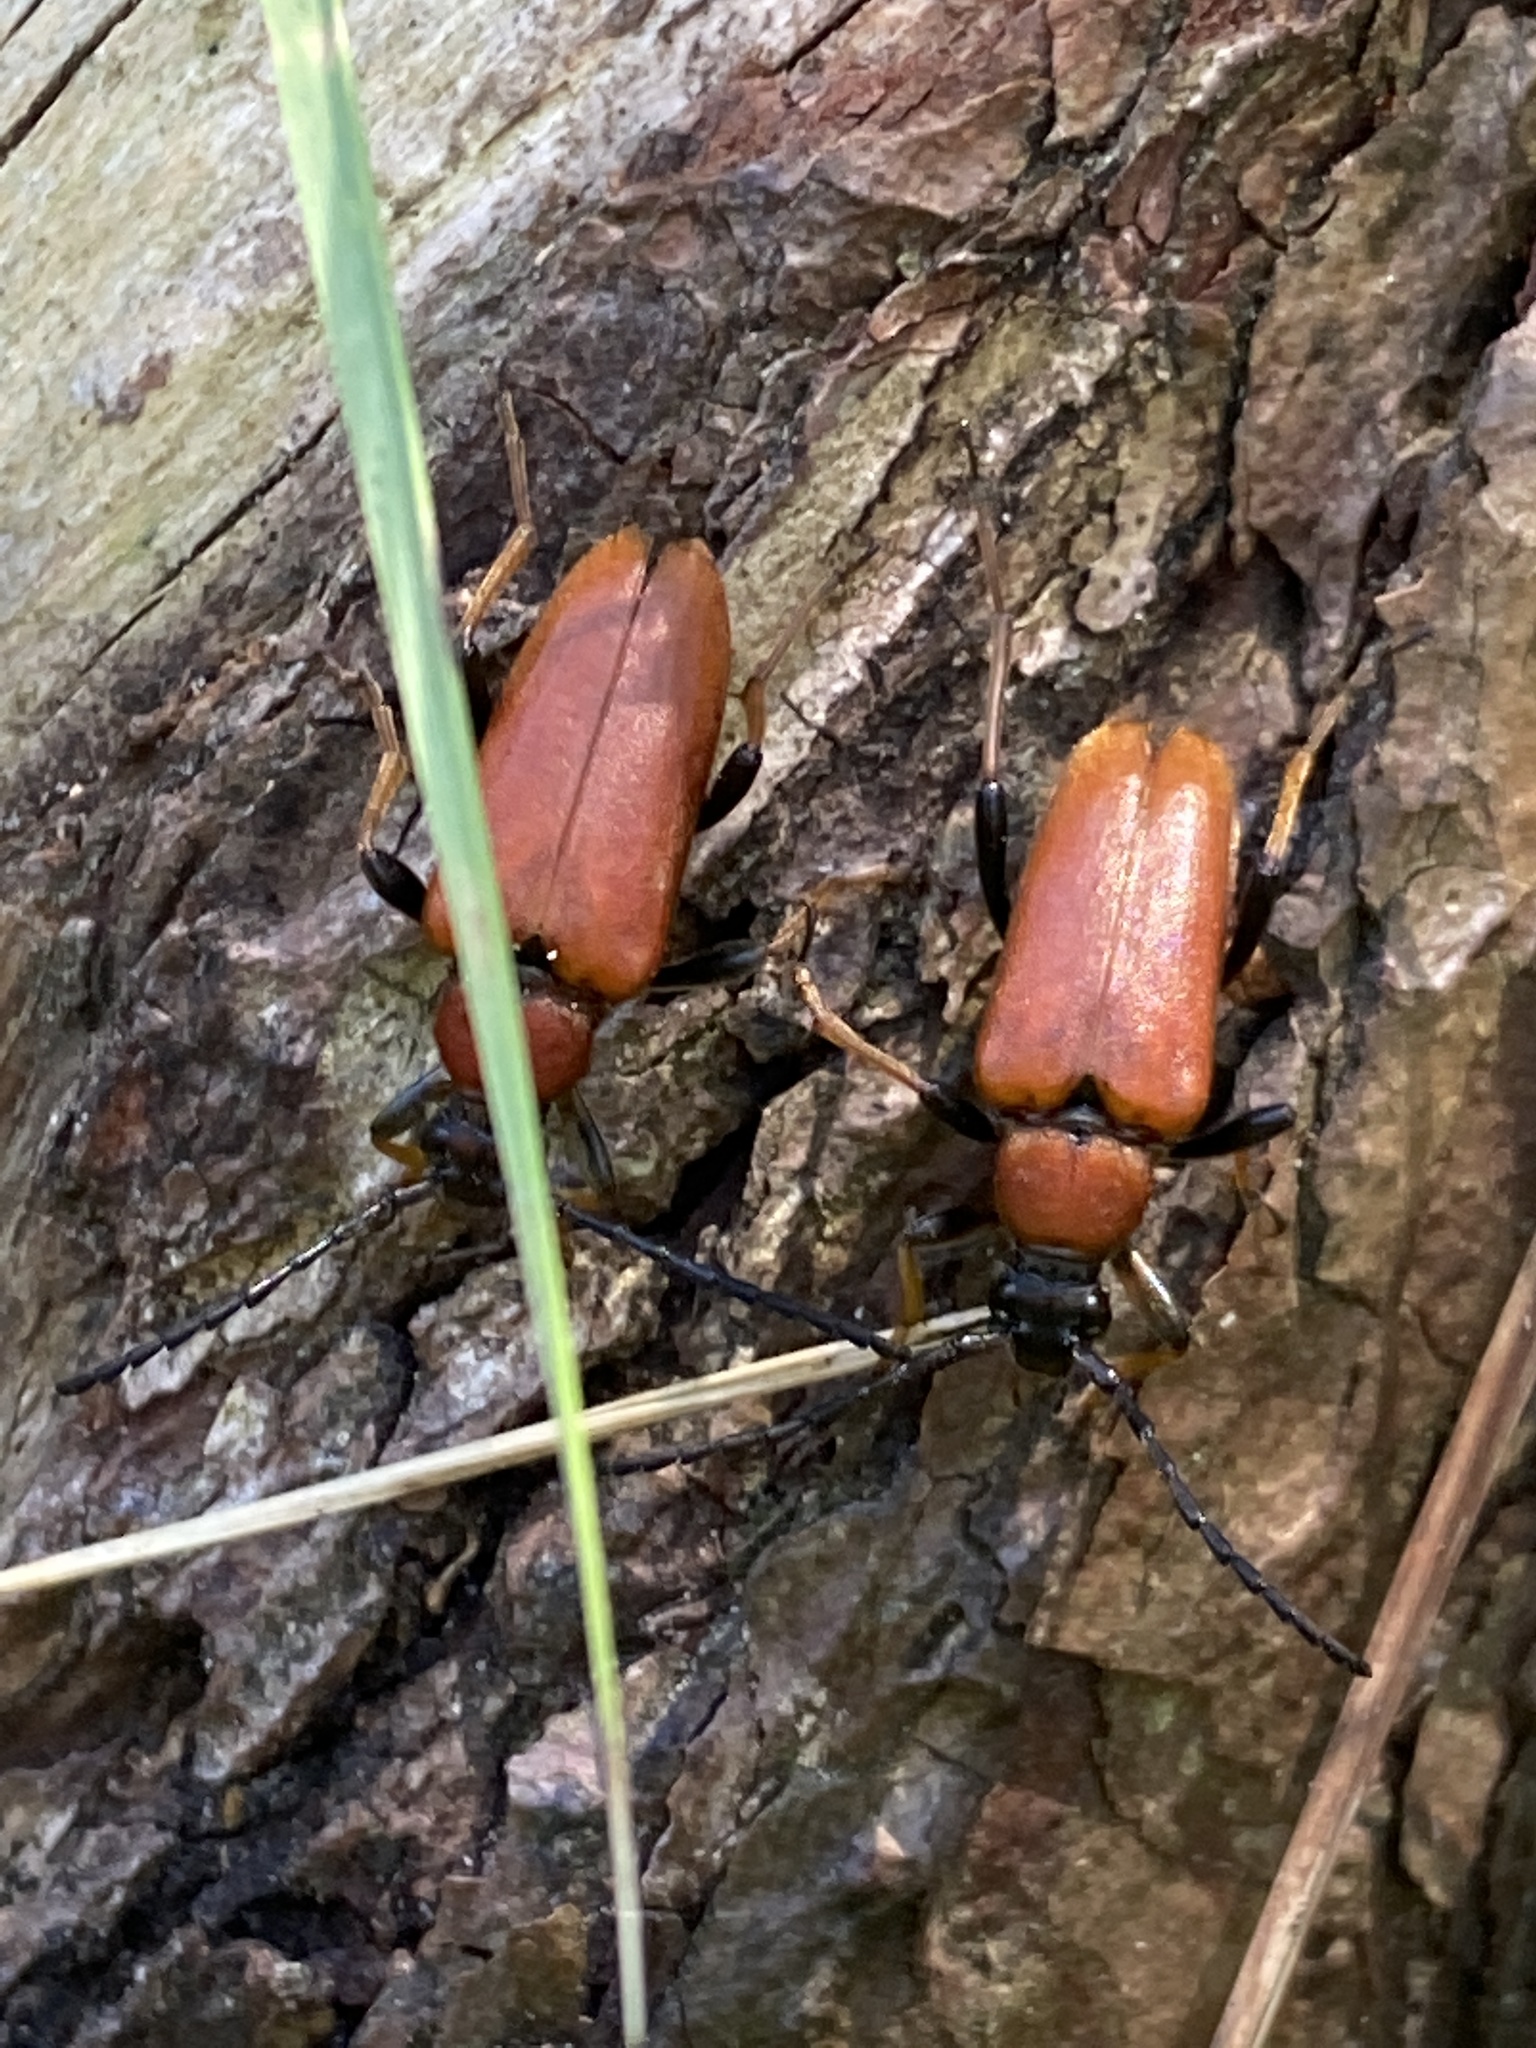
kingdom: Animalia
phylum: Arthropoda
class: Insecta
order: Coleoptera
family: Cerambycidae
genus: Stictoleptura
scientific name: Stictoleptura rubra
